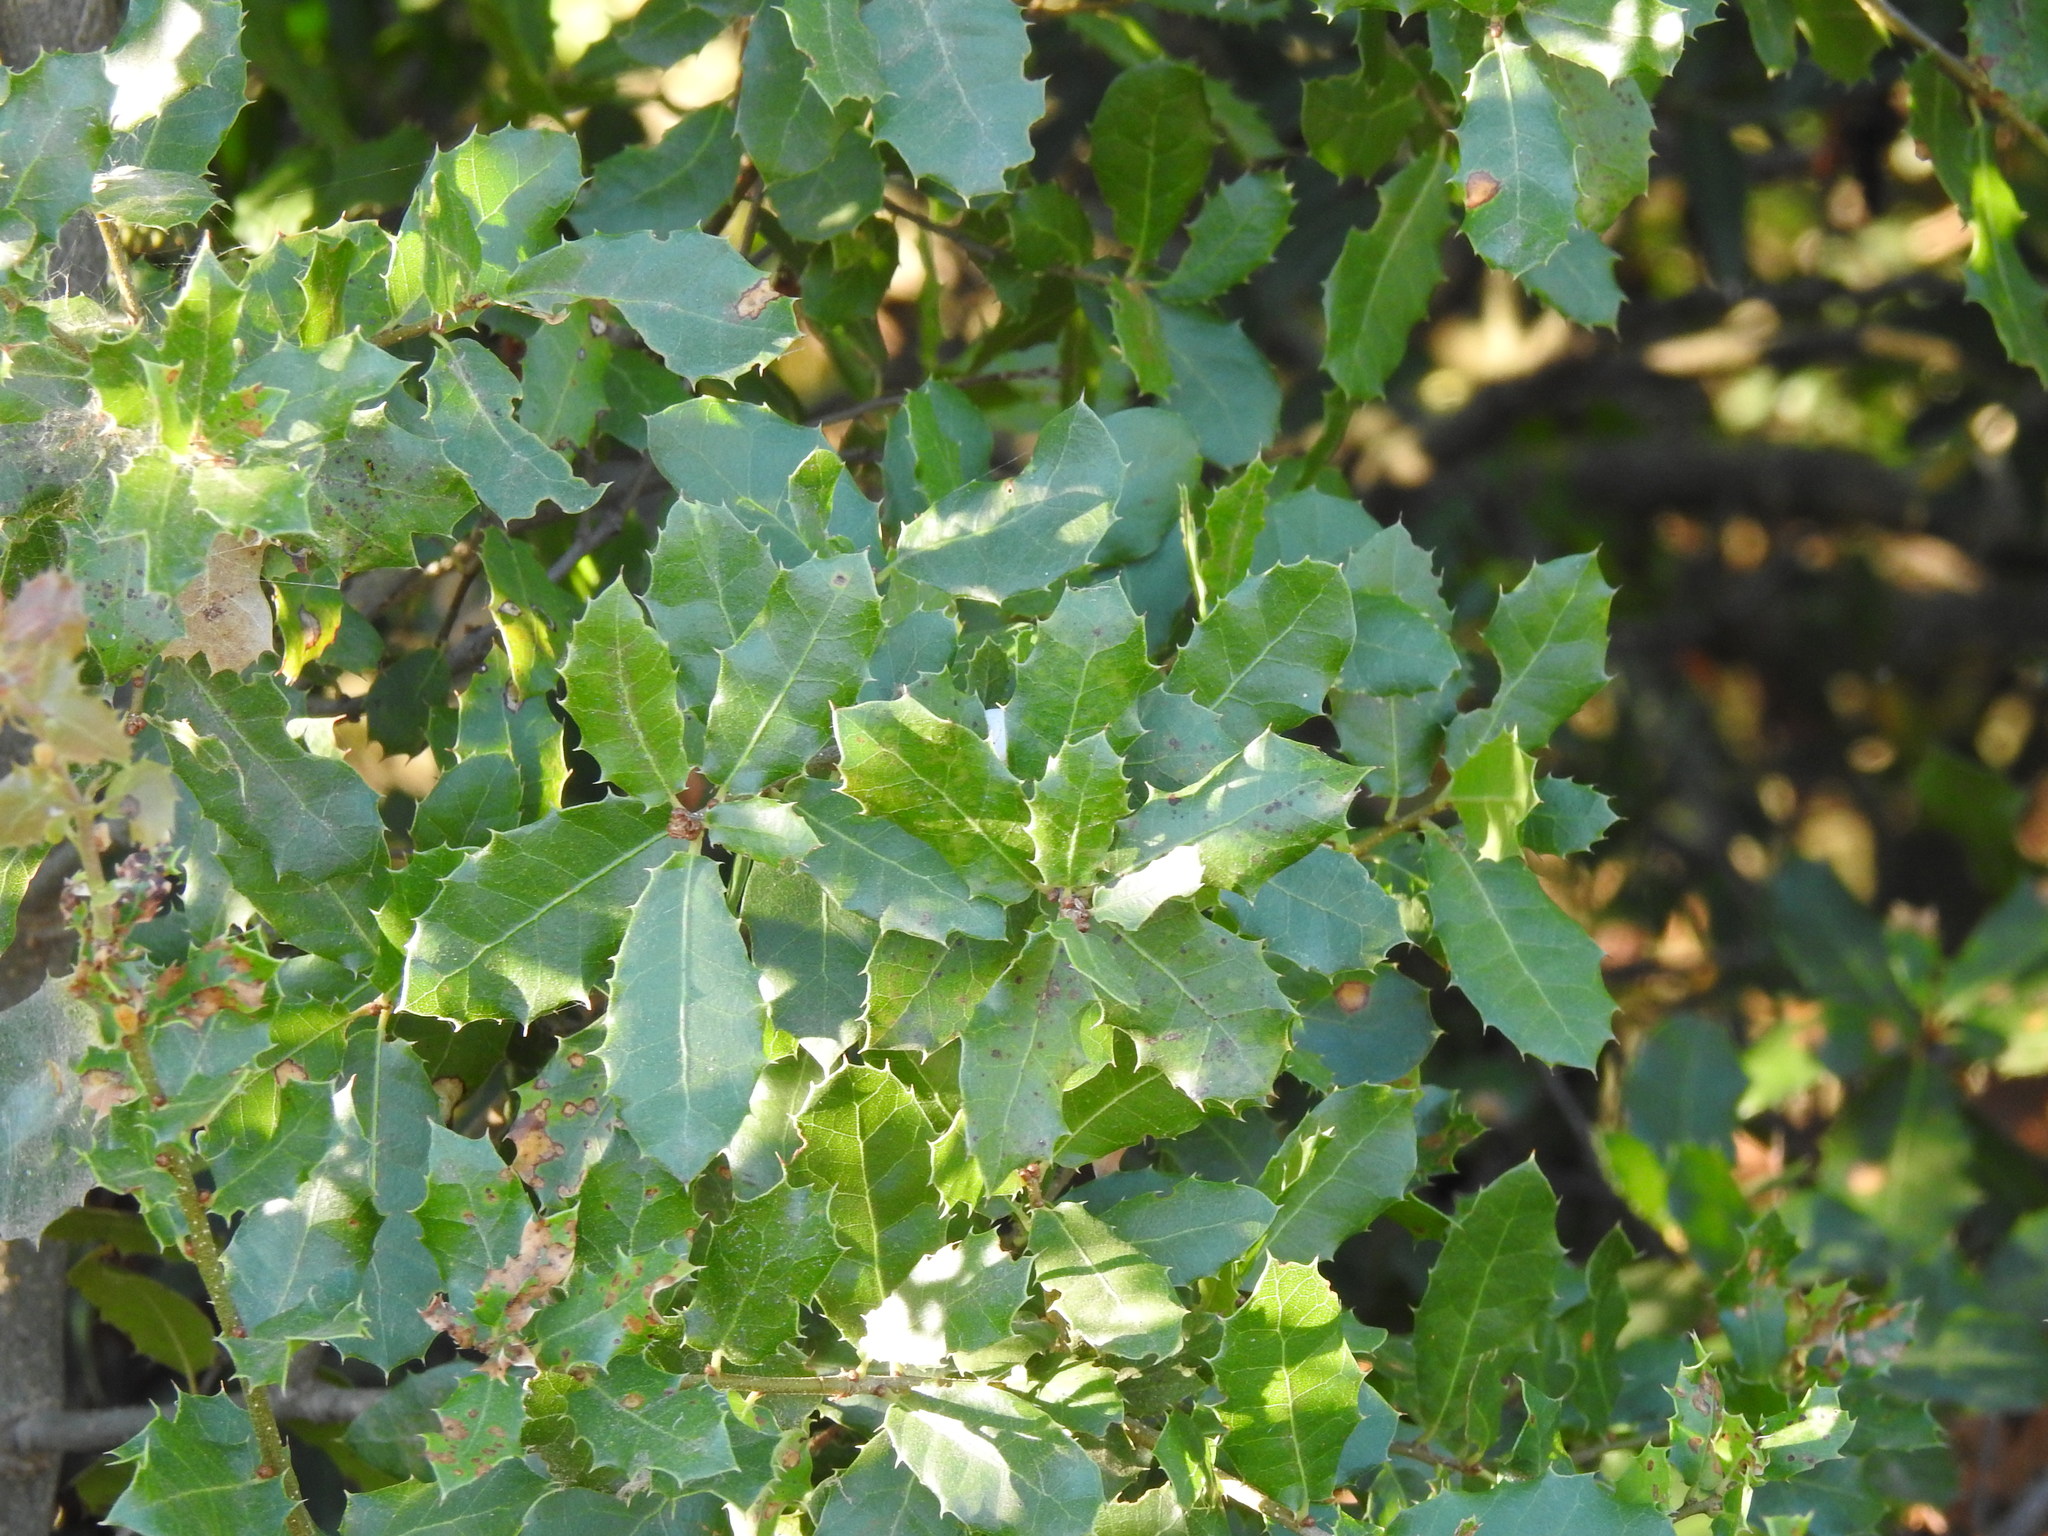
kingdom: Plantae
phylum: Tracheophyta
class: Magnoliopsida
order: Fagales
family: Fagaceae
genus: Quercus
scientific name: Quercus coccifera
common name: Kermes oak
